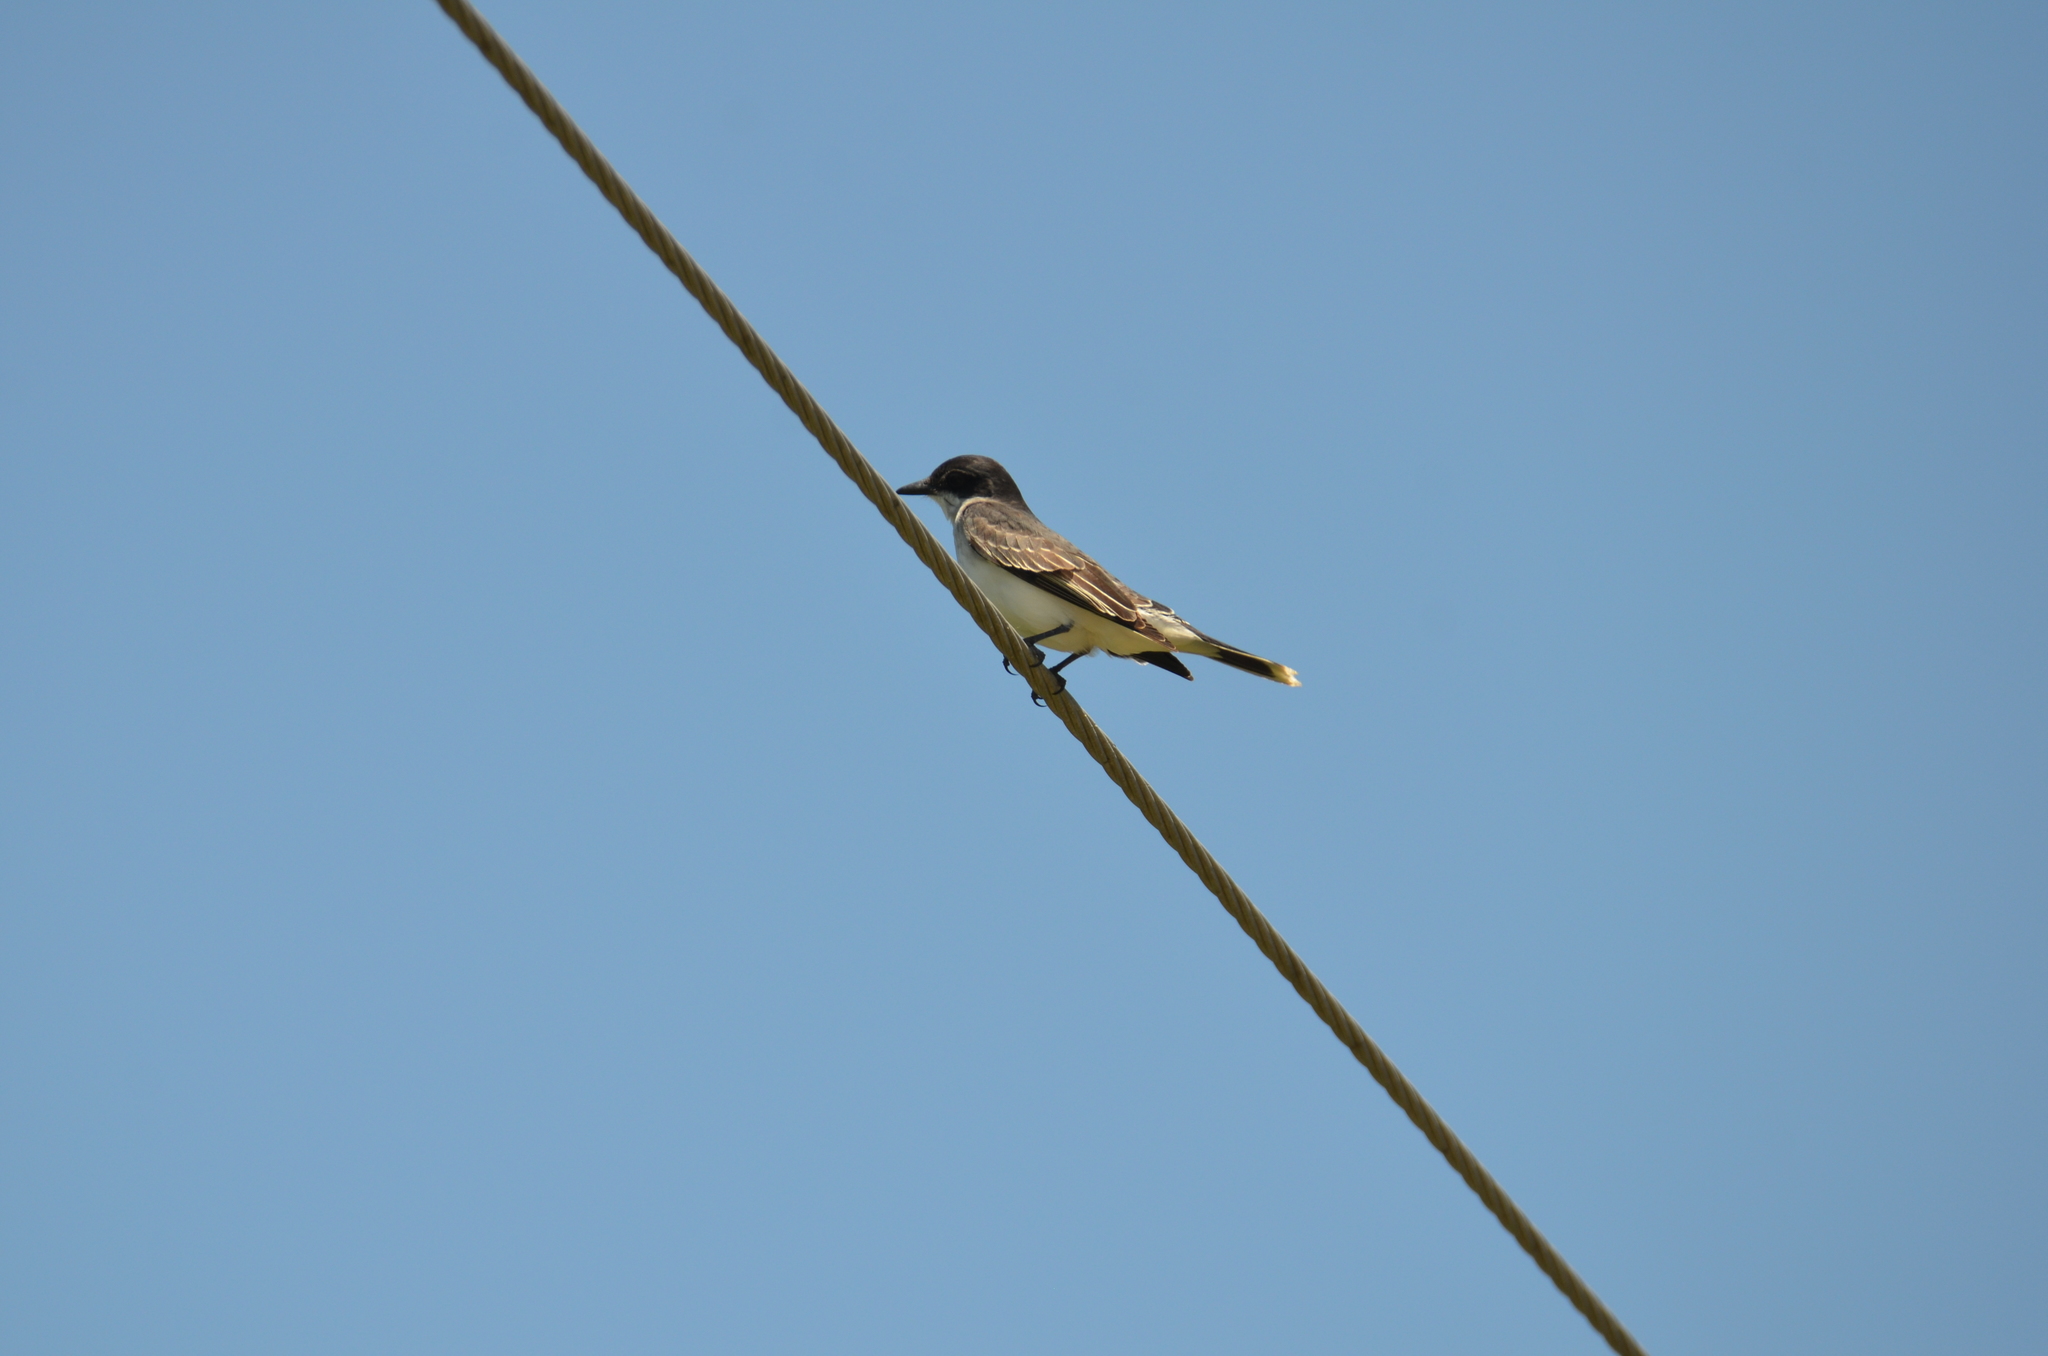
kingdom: Animalia
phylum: Chordata
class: Aves
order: Passeriformes
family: Tyrannidae
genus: Tyrannus
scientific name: Tyrannus tyrannus
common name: Eastern kingbird
